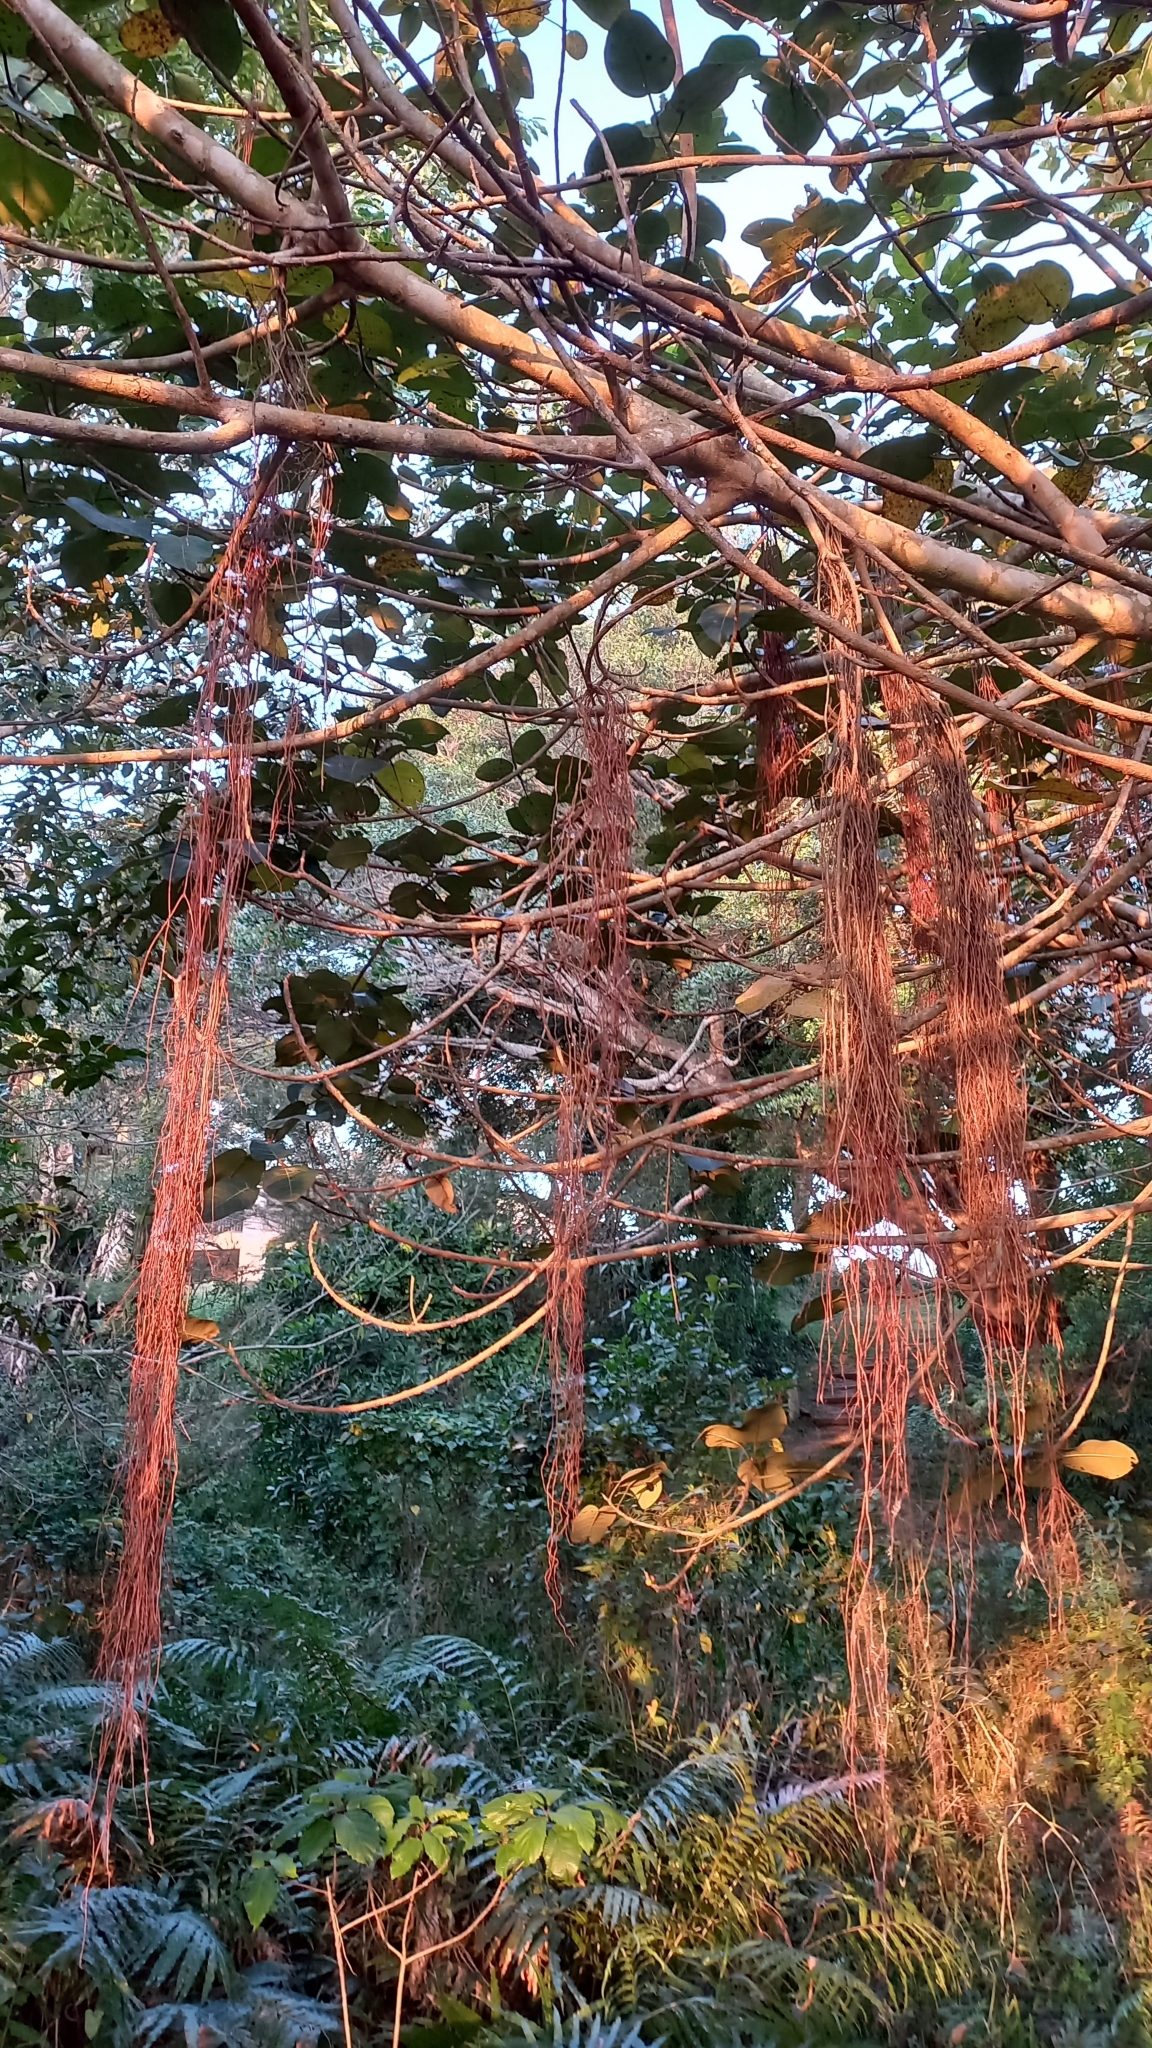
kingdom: Plantae
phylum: Tracheophyta
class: Magnoliopsida
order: Rosales
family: Moraceae
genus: Ficus
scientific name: Ficus trichopoda
